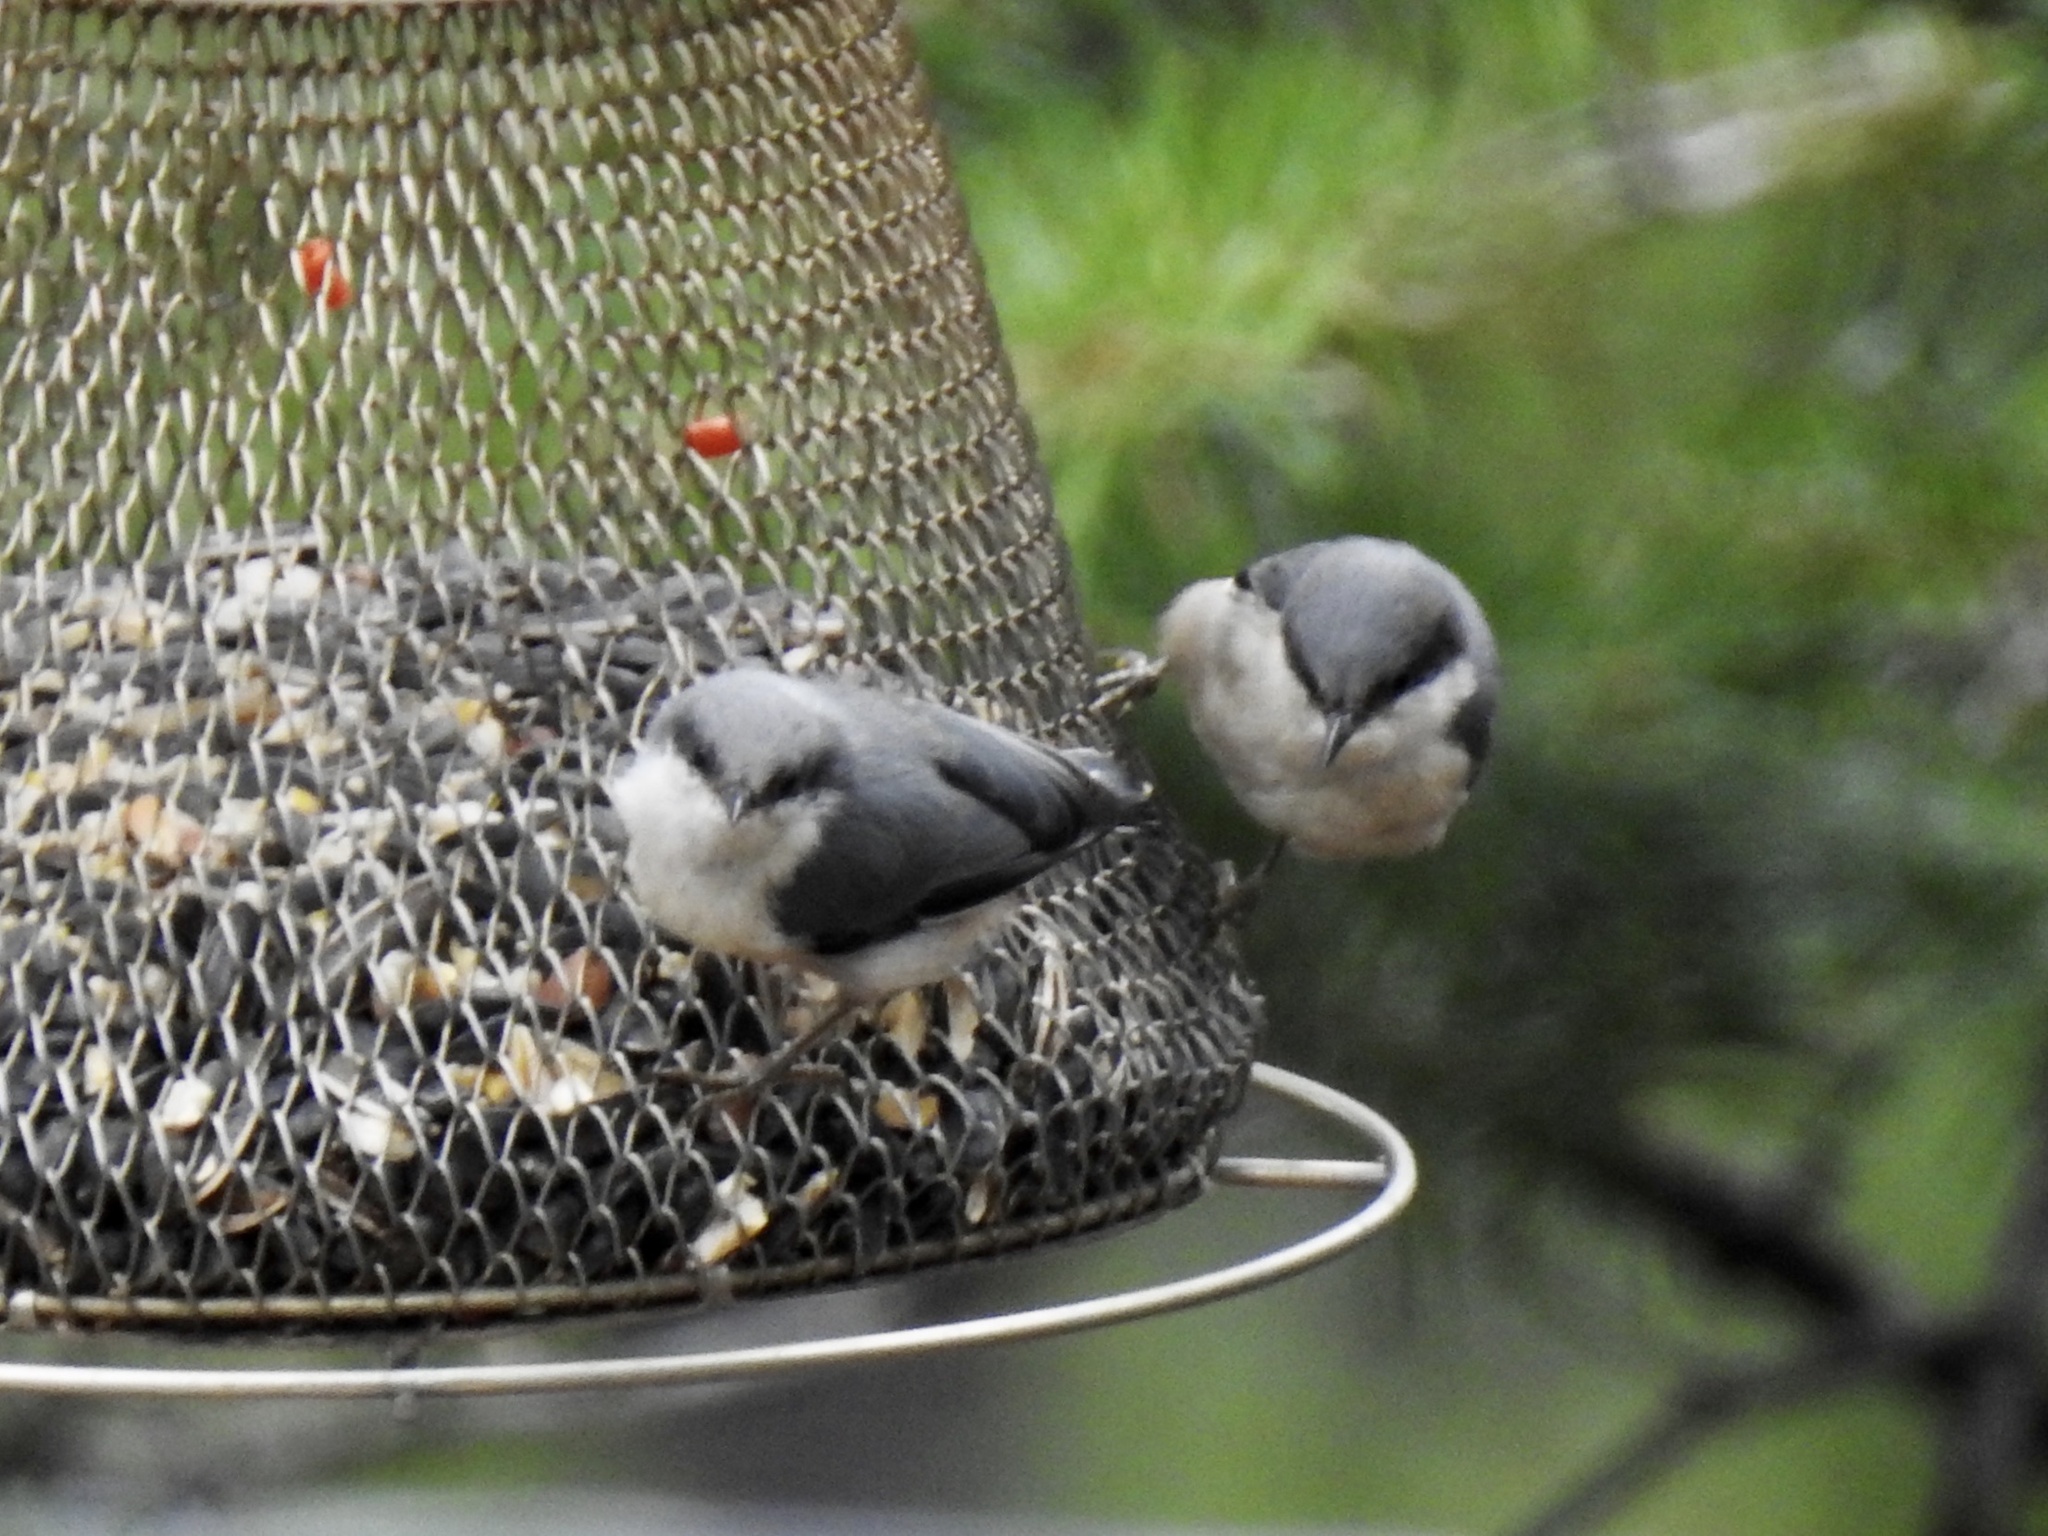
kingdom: Animalia
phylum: Chordata
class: Aves
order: Passeriformes
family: Sittidae
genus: Sitta
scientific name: Sitta pygmaea
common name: Pygmy nuthatch
